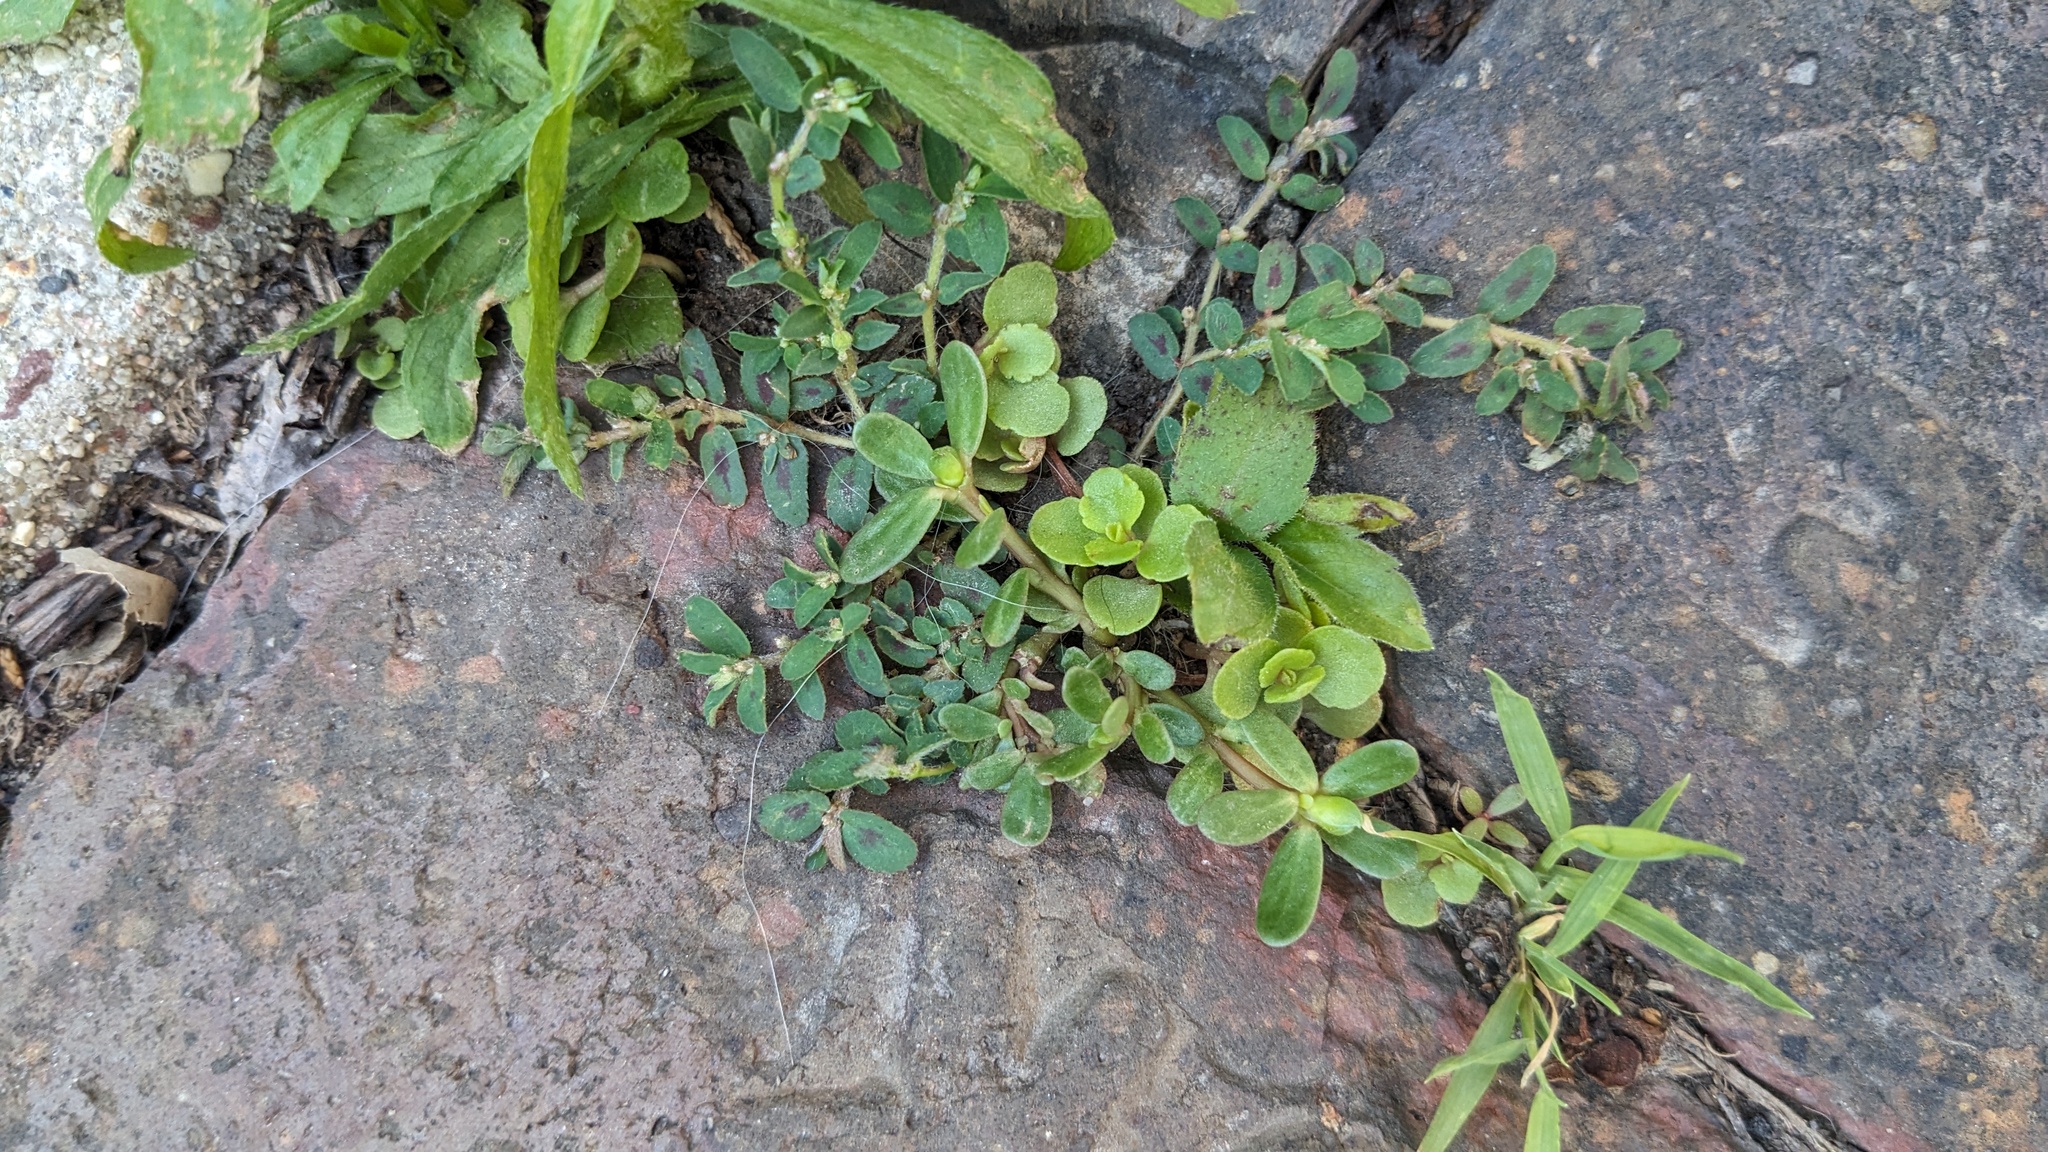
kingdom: Plantae
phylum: Tracheophyta
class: Magnoliopsida
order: Malpighiales
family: Euphorbiaceae
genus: Euphorbia
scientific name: Euphorbia maculata
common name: Spotted spurge
